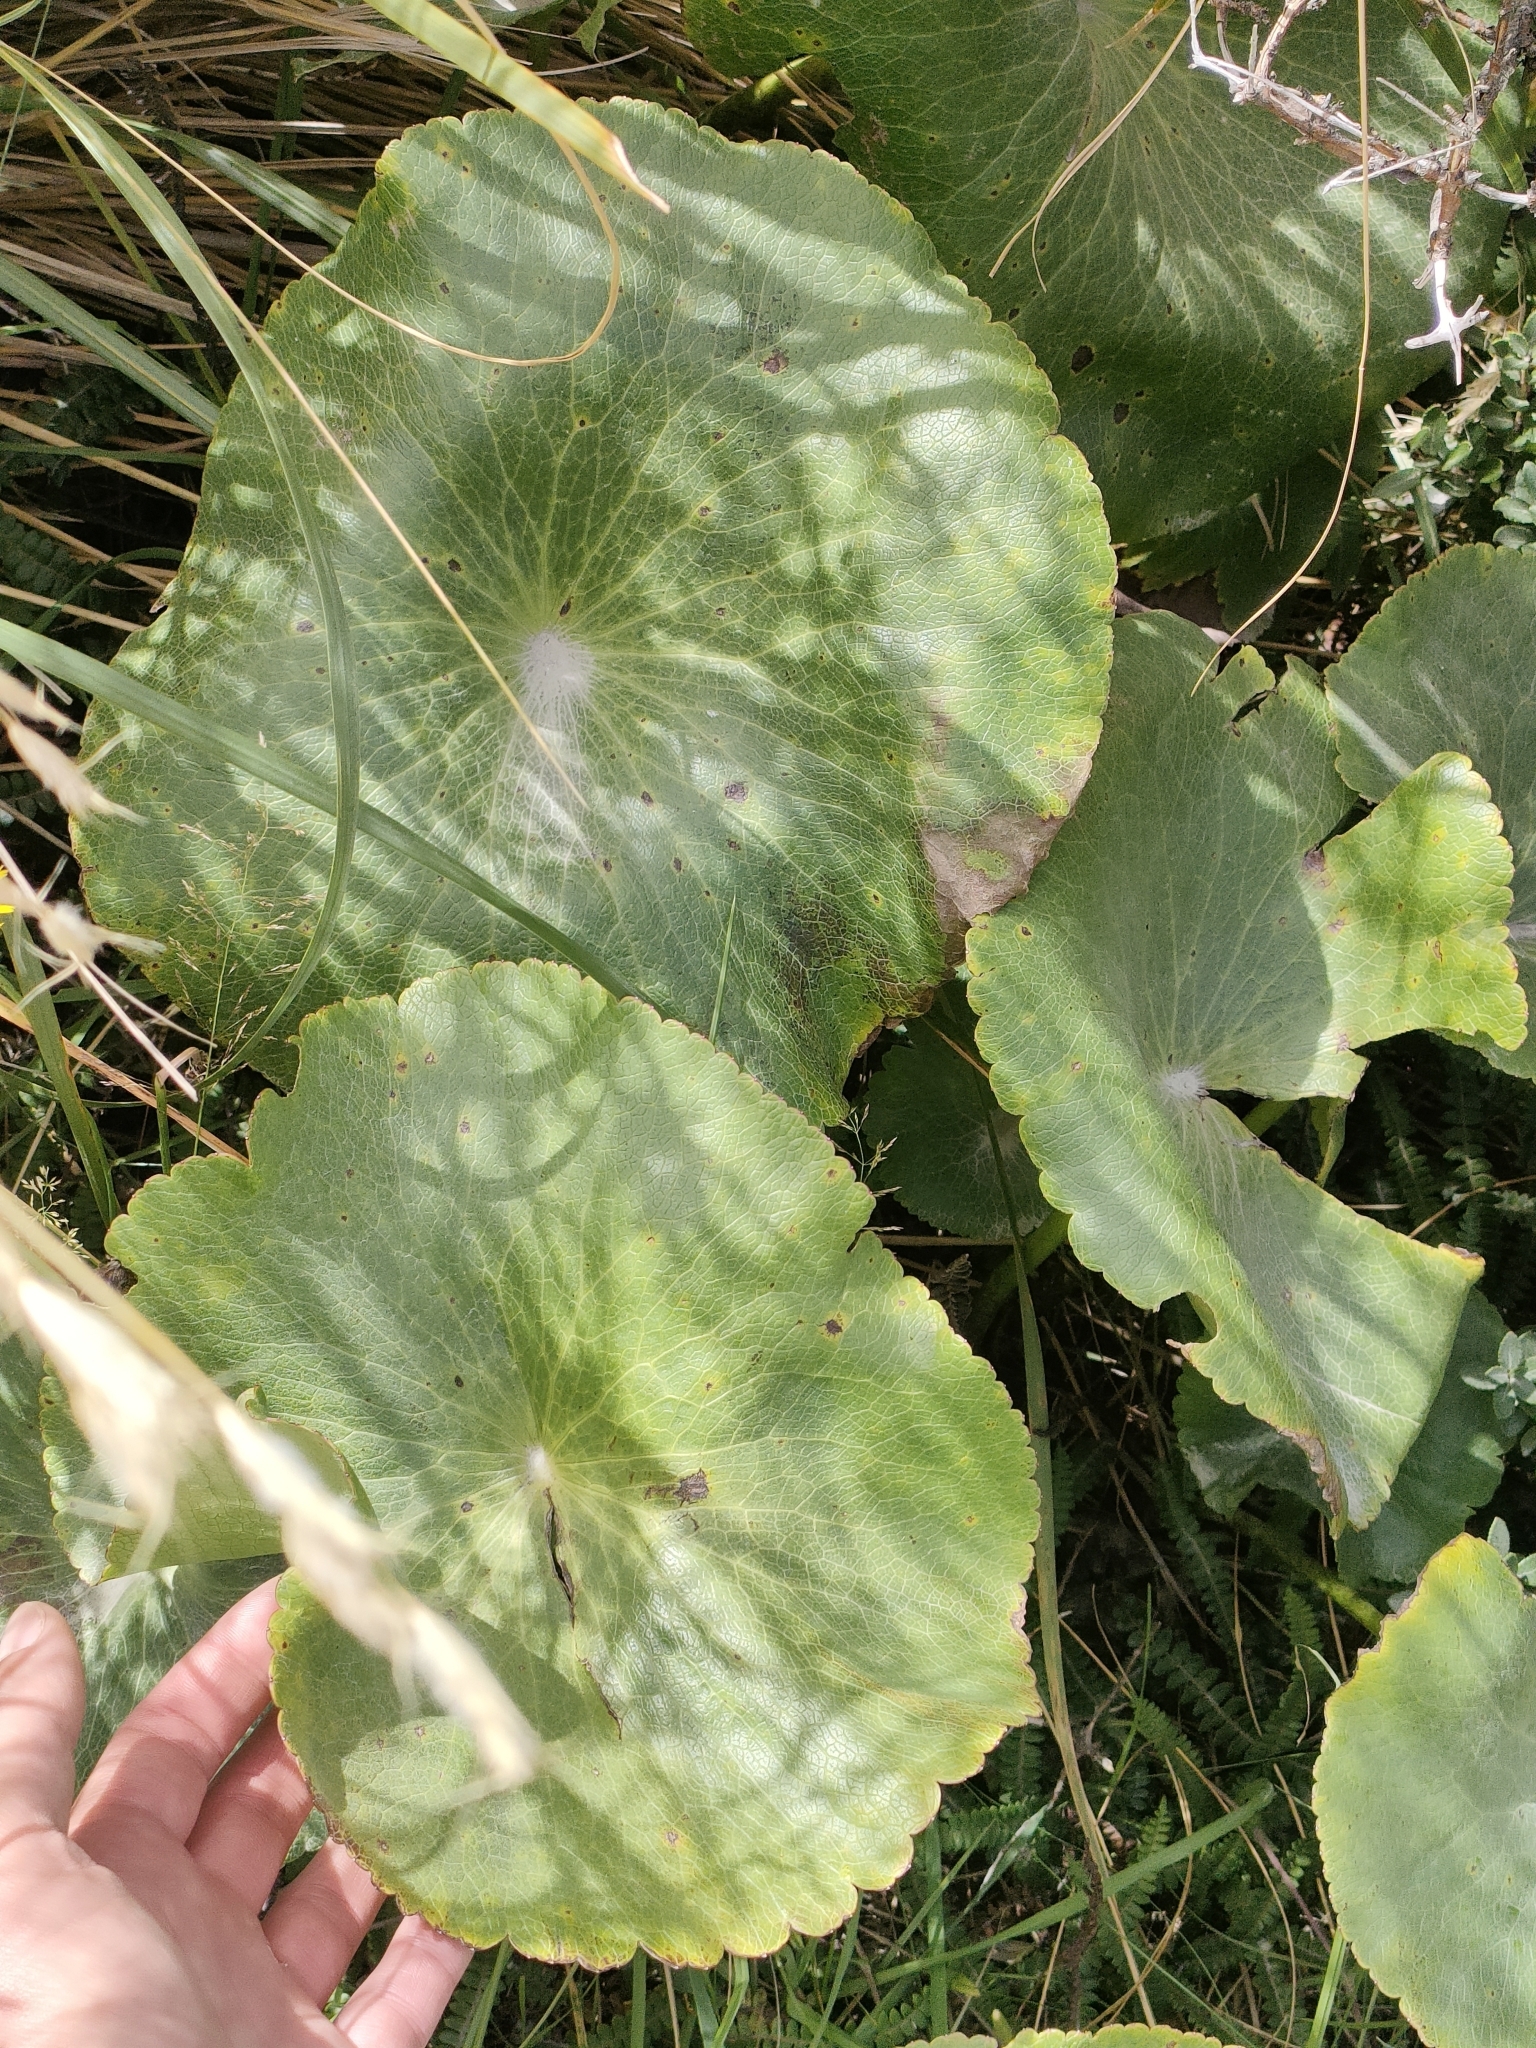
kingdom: Plantae
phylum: Tracheophyta
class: Magnoliopsida
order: Ranunculales
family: Ranunculaceae
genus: Ranunculus
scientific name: Ranunculus lyallii
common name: Mountain-lily
